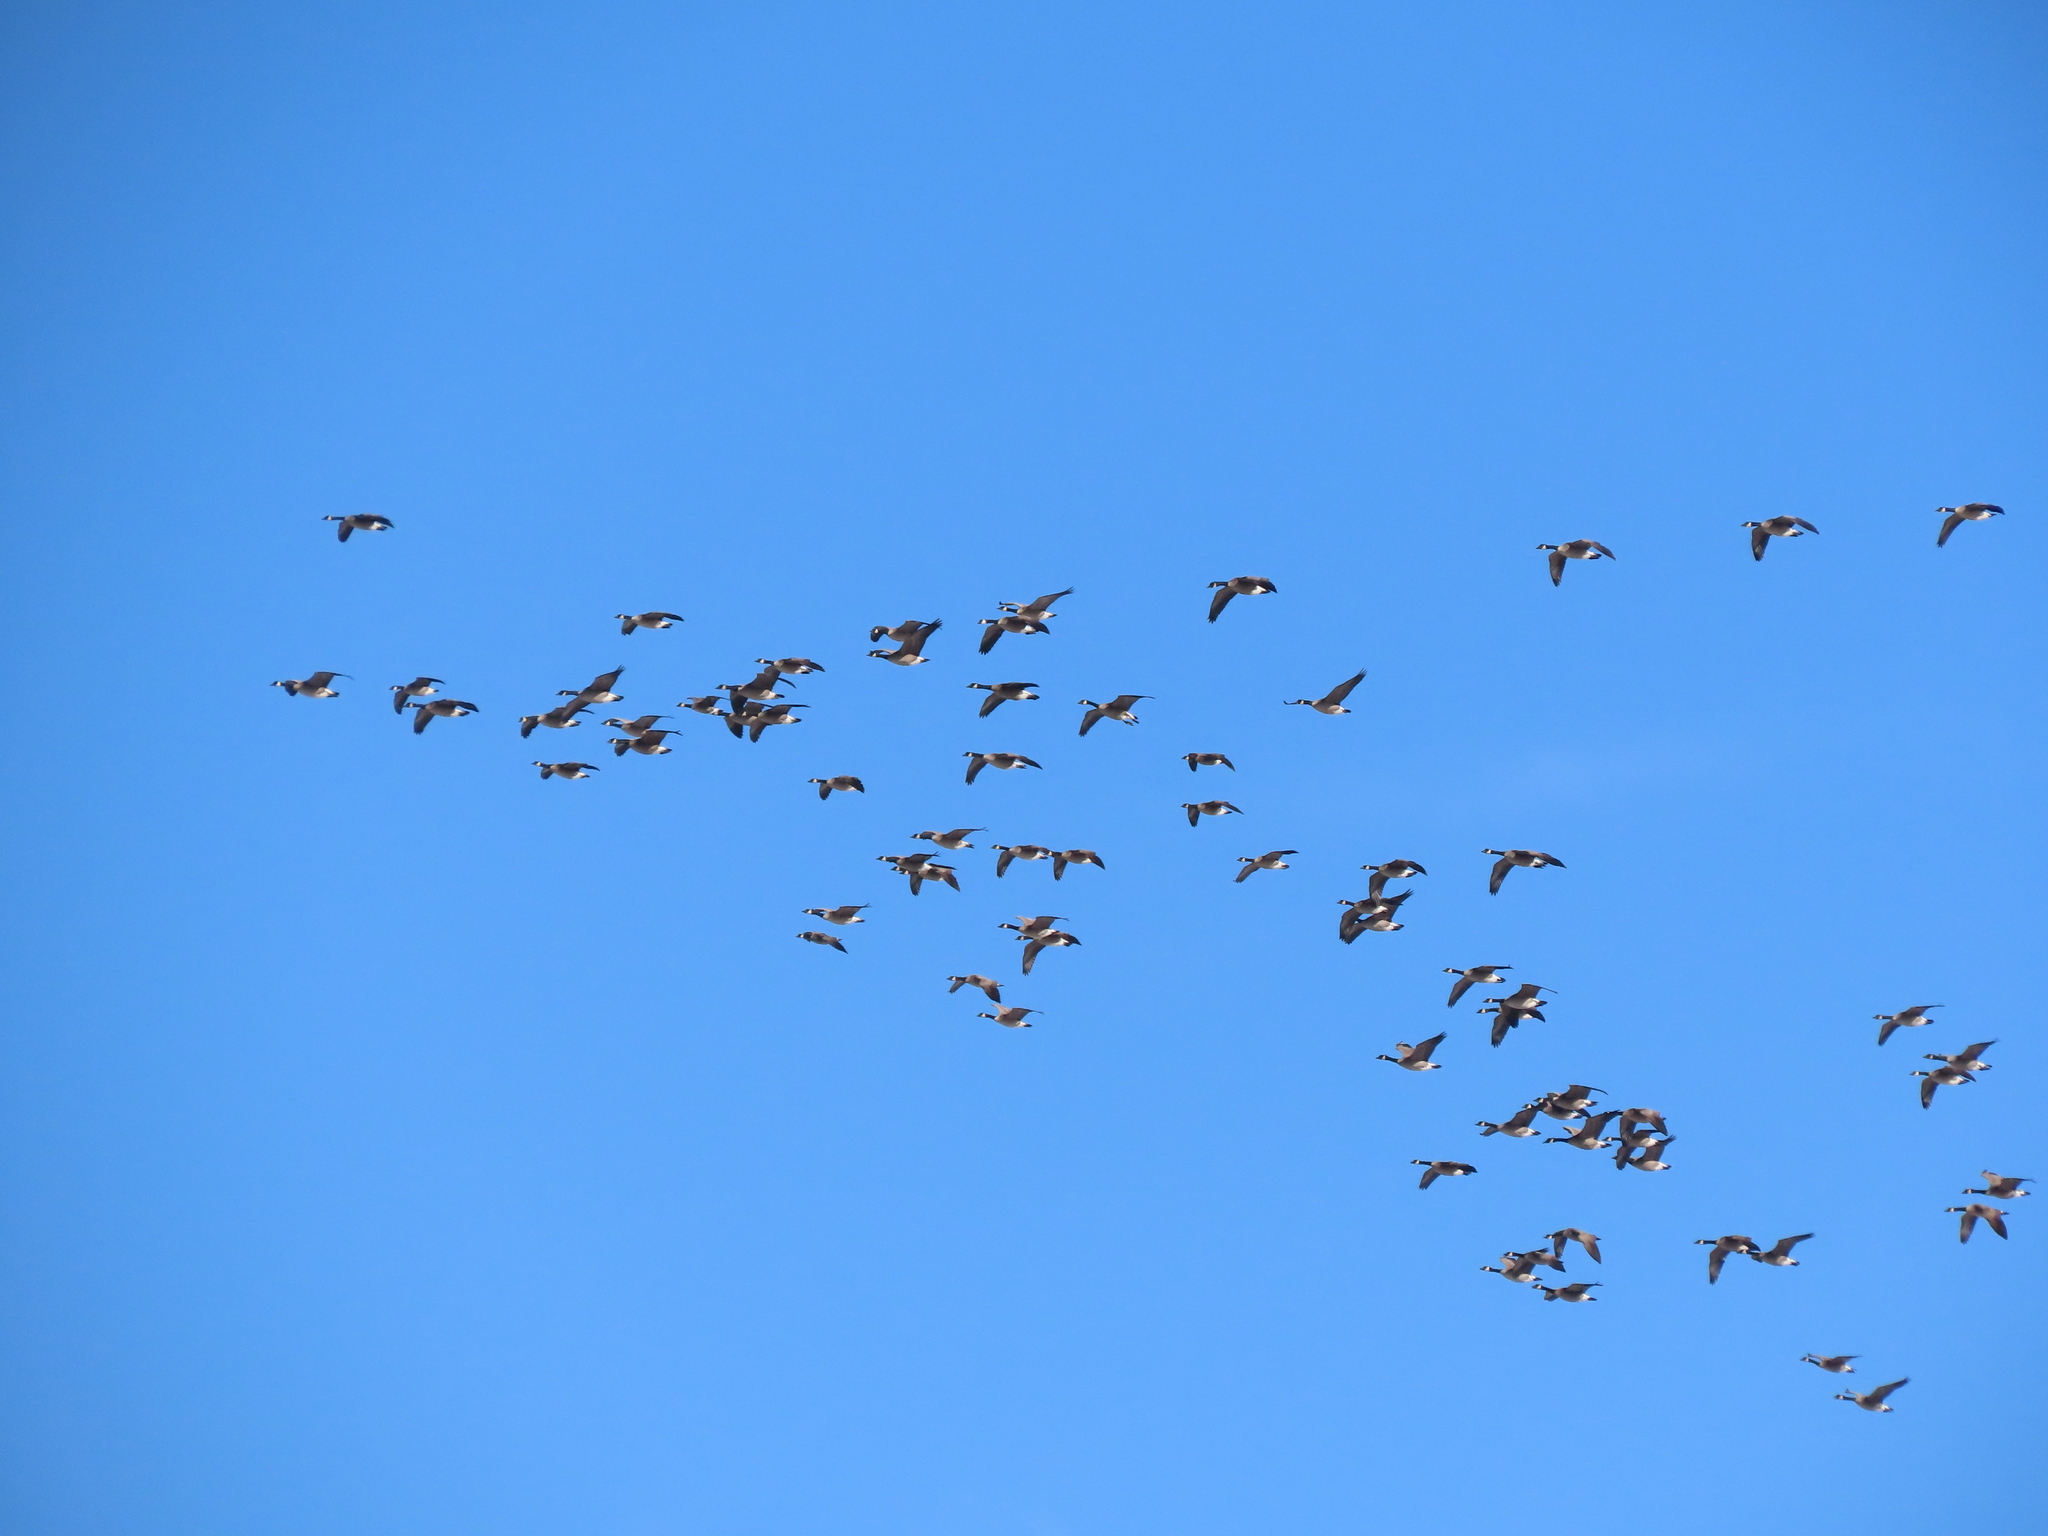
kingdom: Animalia
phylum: Chordata
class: Aves
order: Anseriformes
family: Anatidae
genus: Branta
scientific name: Branta canadensis
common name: Canada goose
